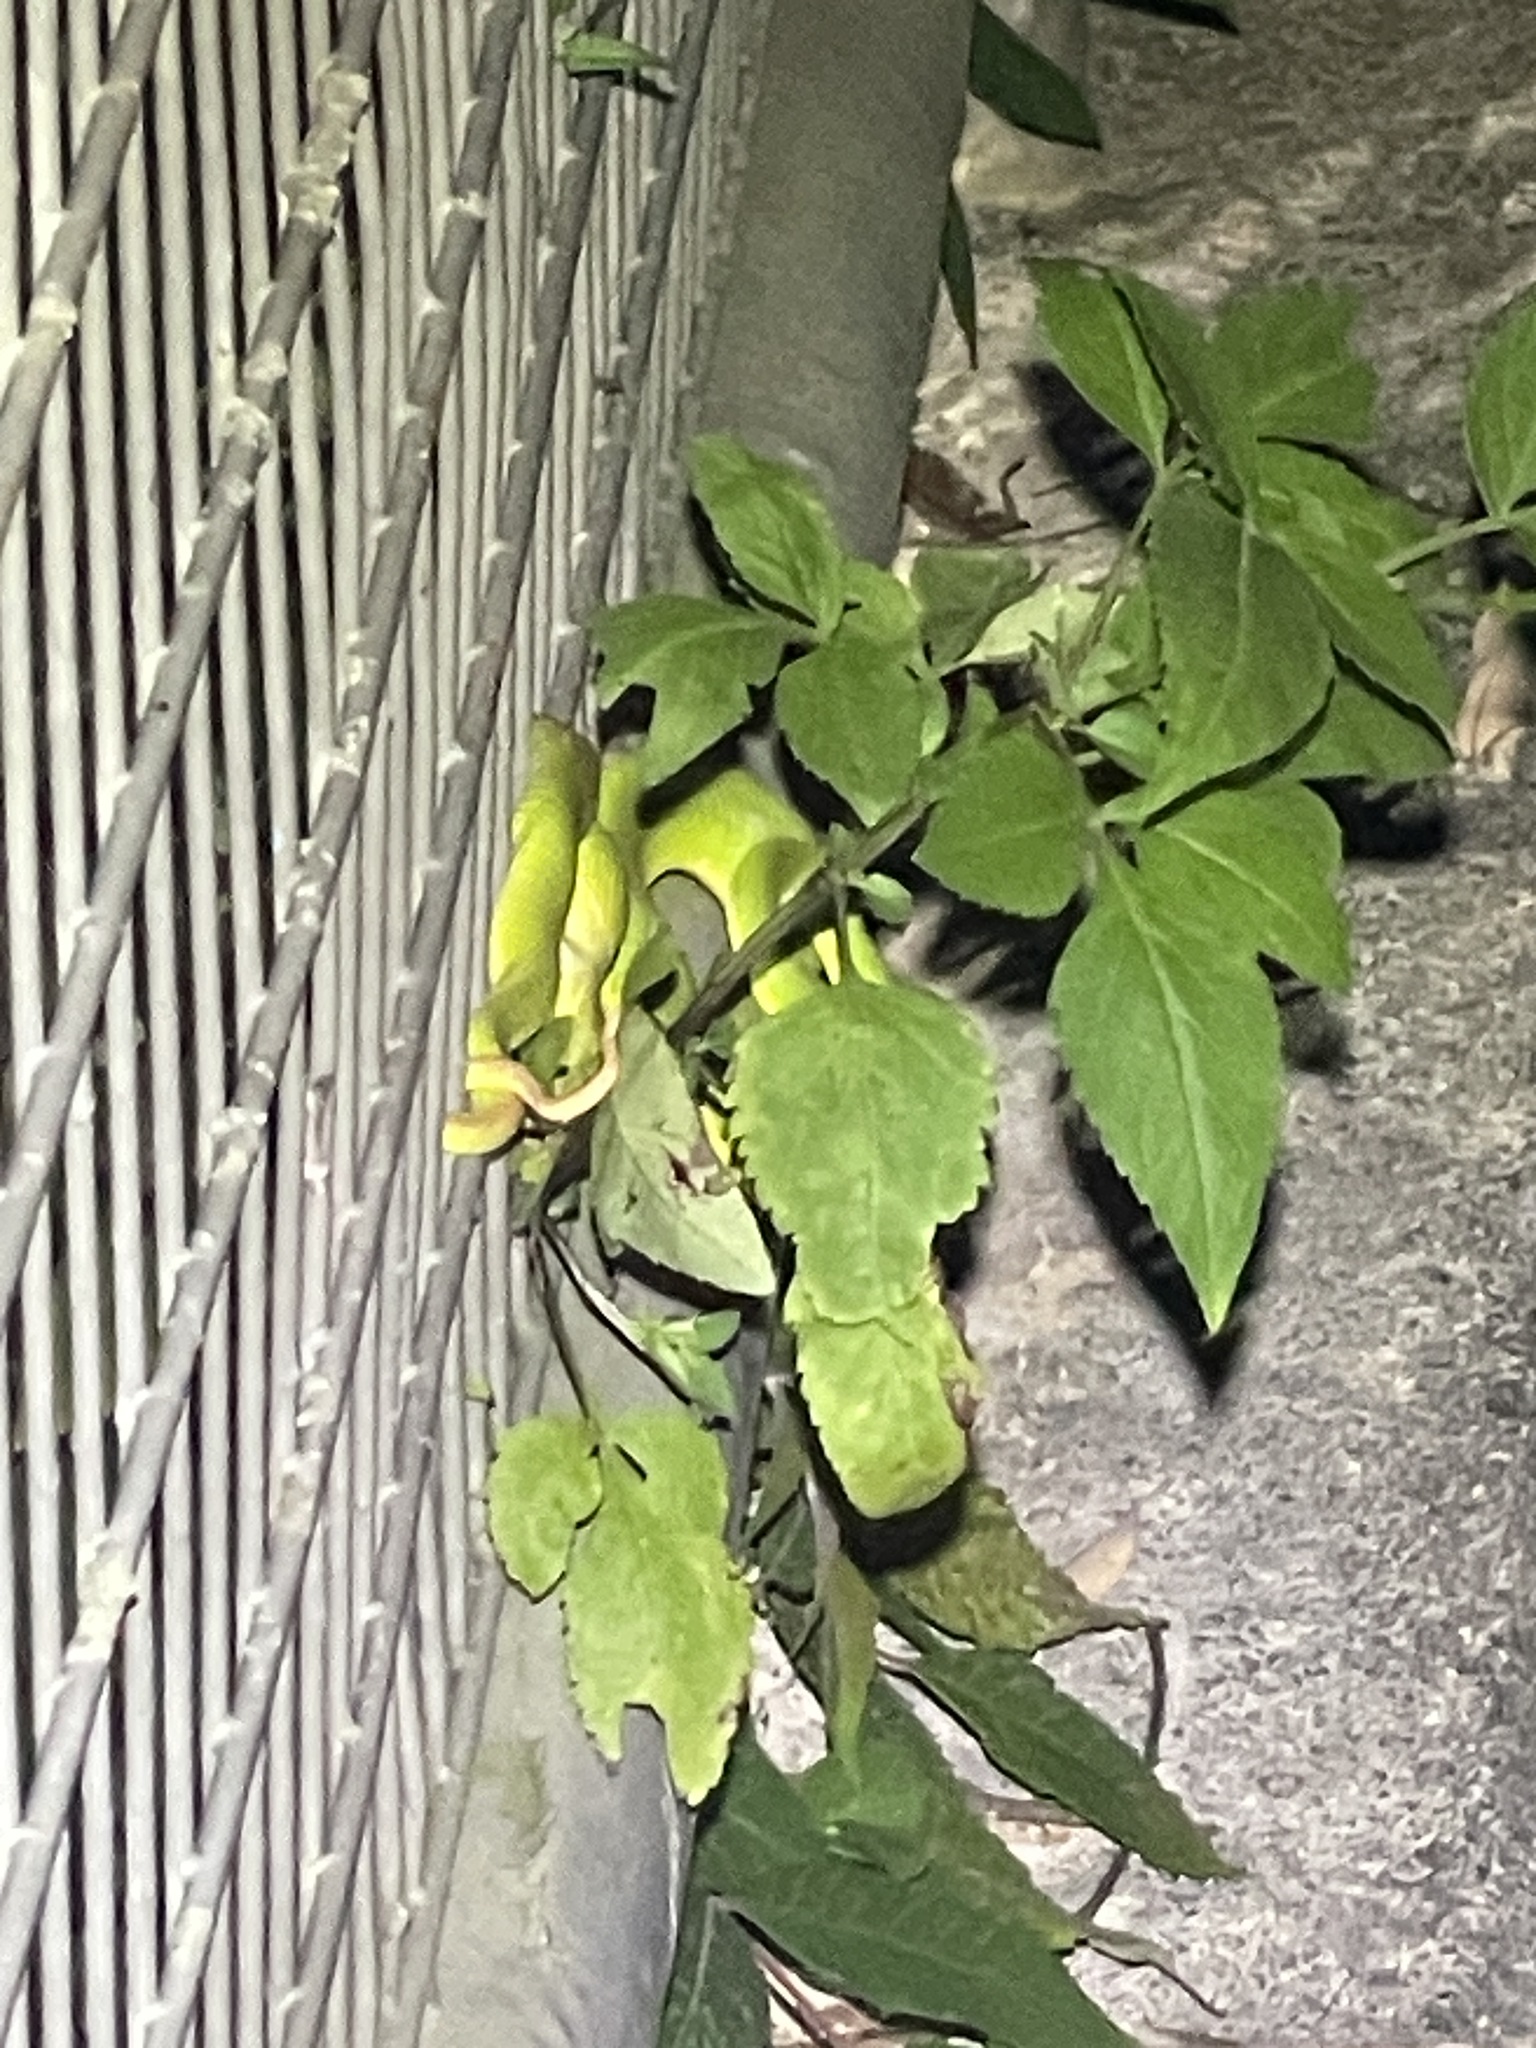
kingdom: Animalia
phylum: Chordata
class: Squamata
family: Viperidae
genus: Trimeresurus
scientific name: Trimeresurus albolabris
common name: White-lipped pitviper
